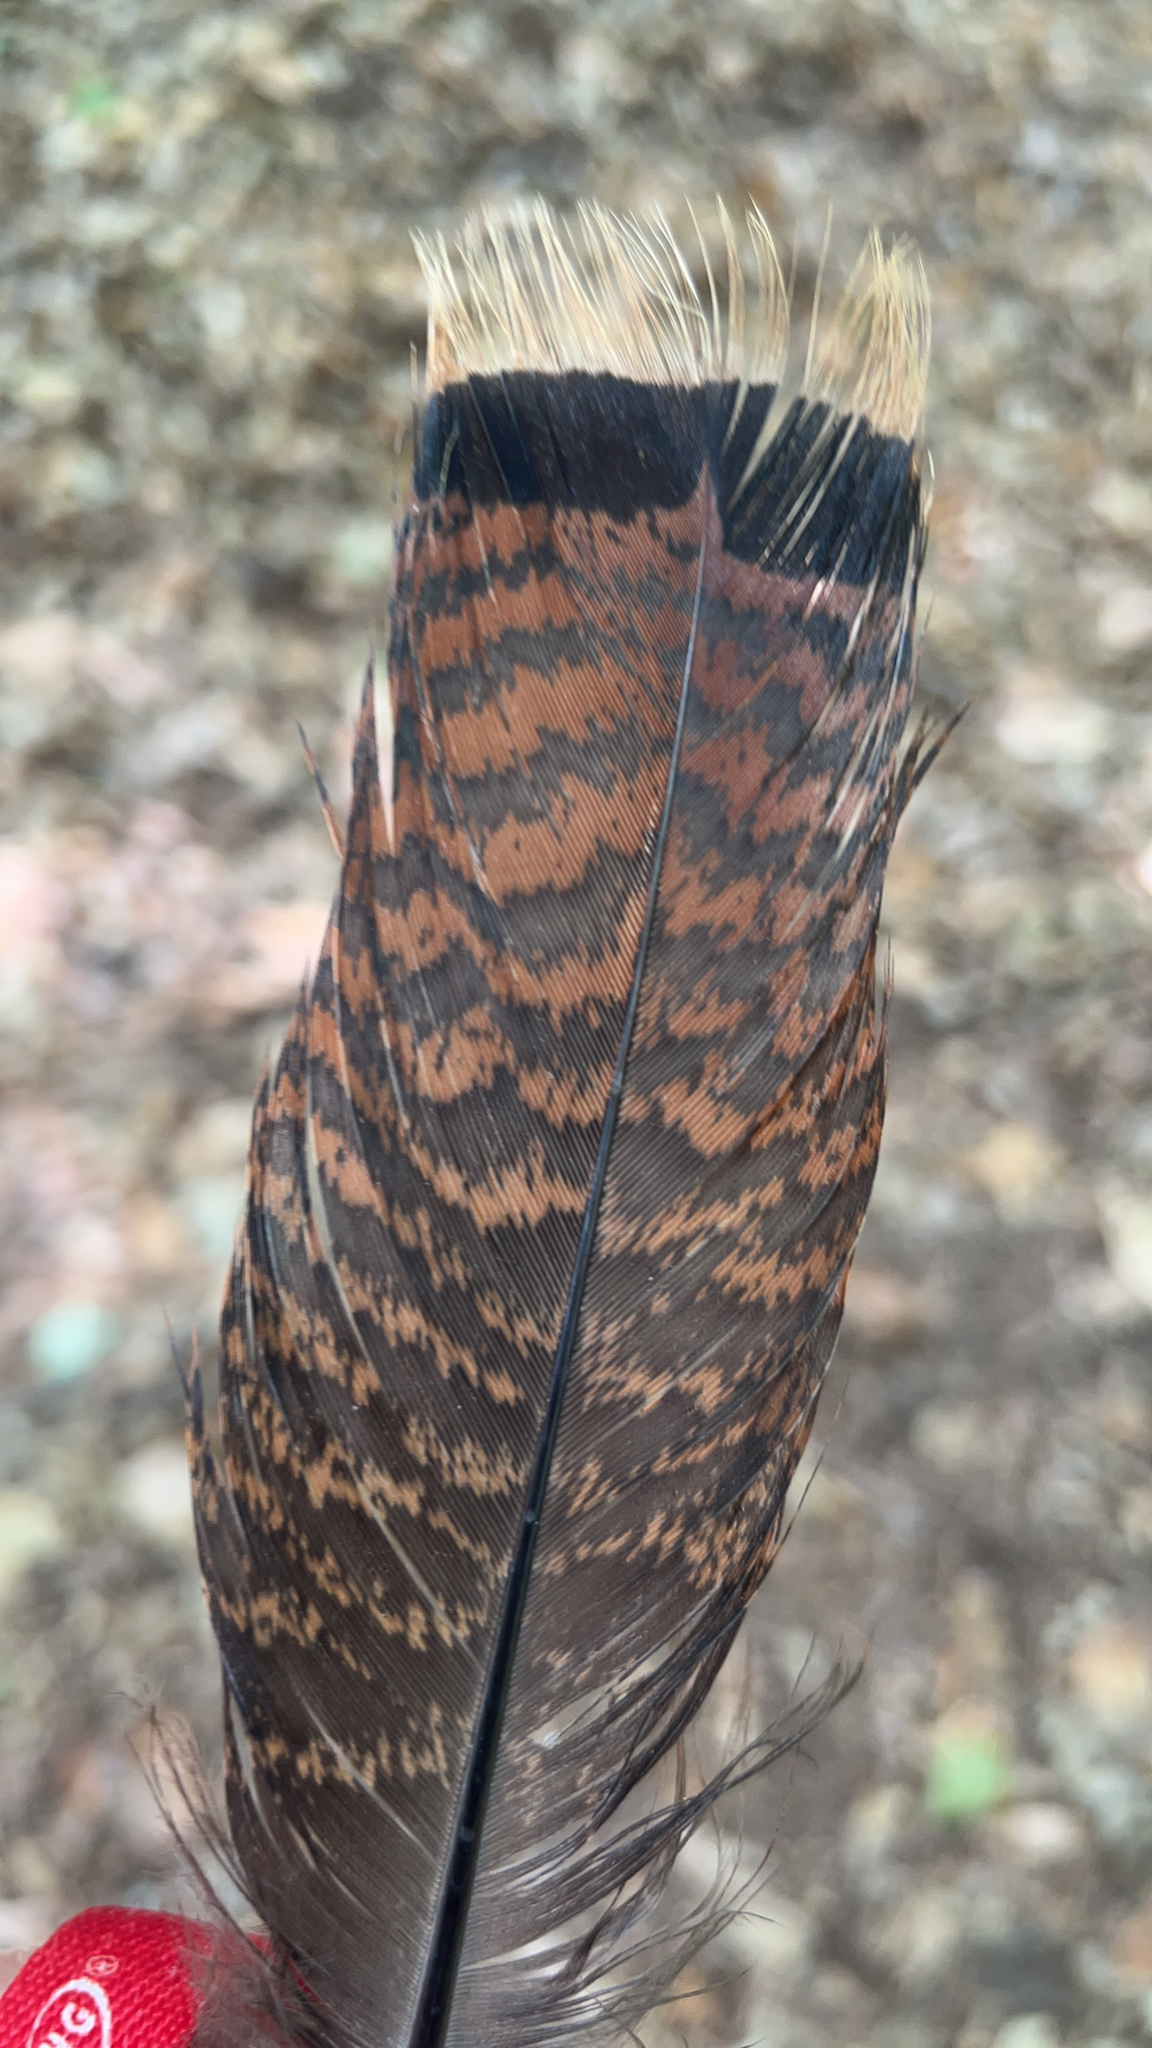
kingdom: Animalia
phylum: Chordata
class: Aves
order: Galliformes
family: Phasianidae
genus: Meleagris
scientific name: Meleagris gallopavo
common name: Wild turkey
